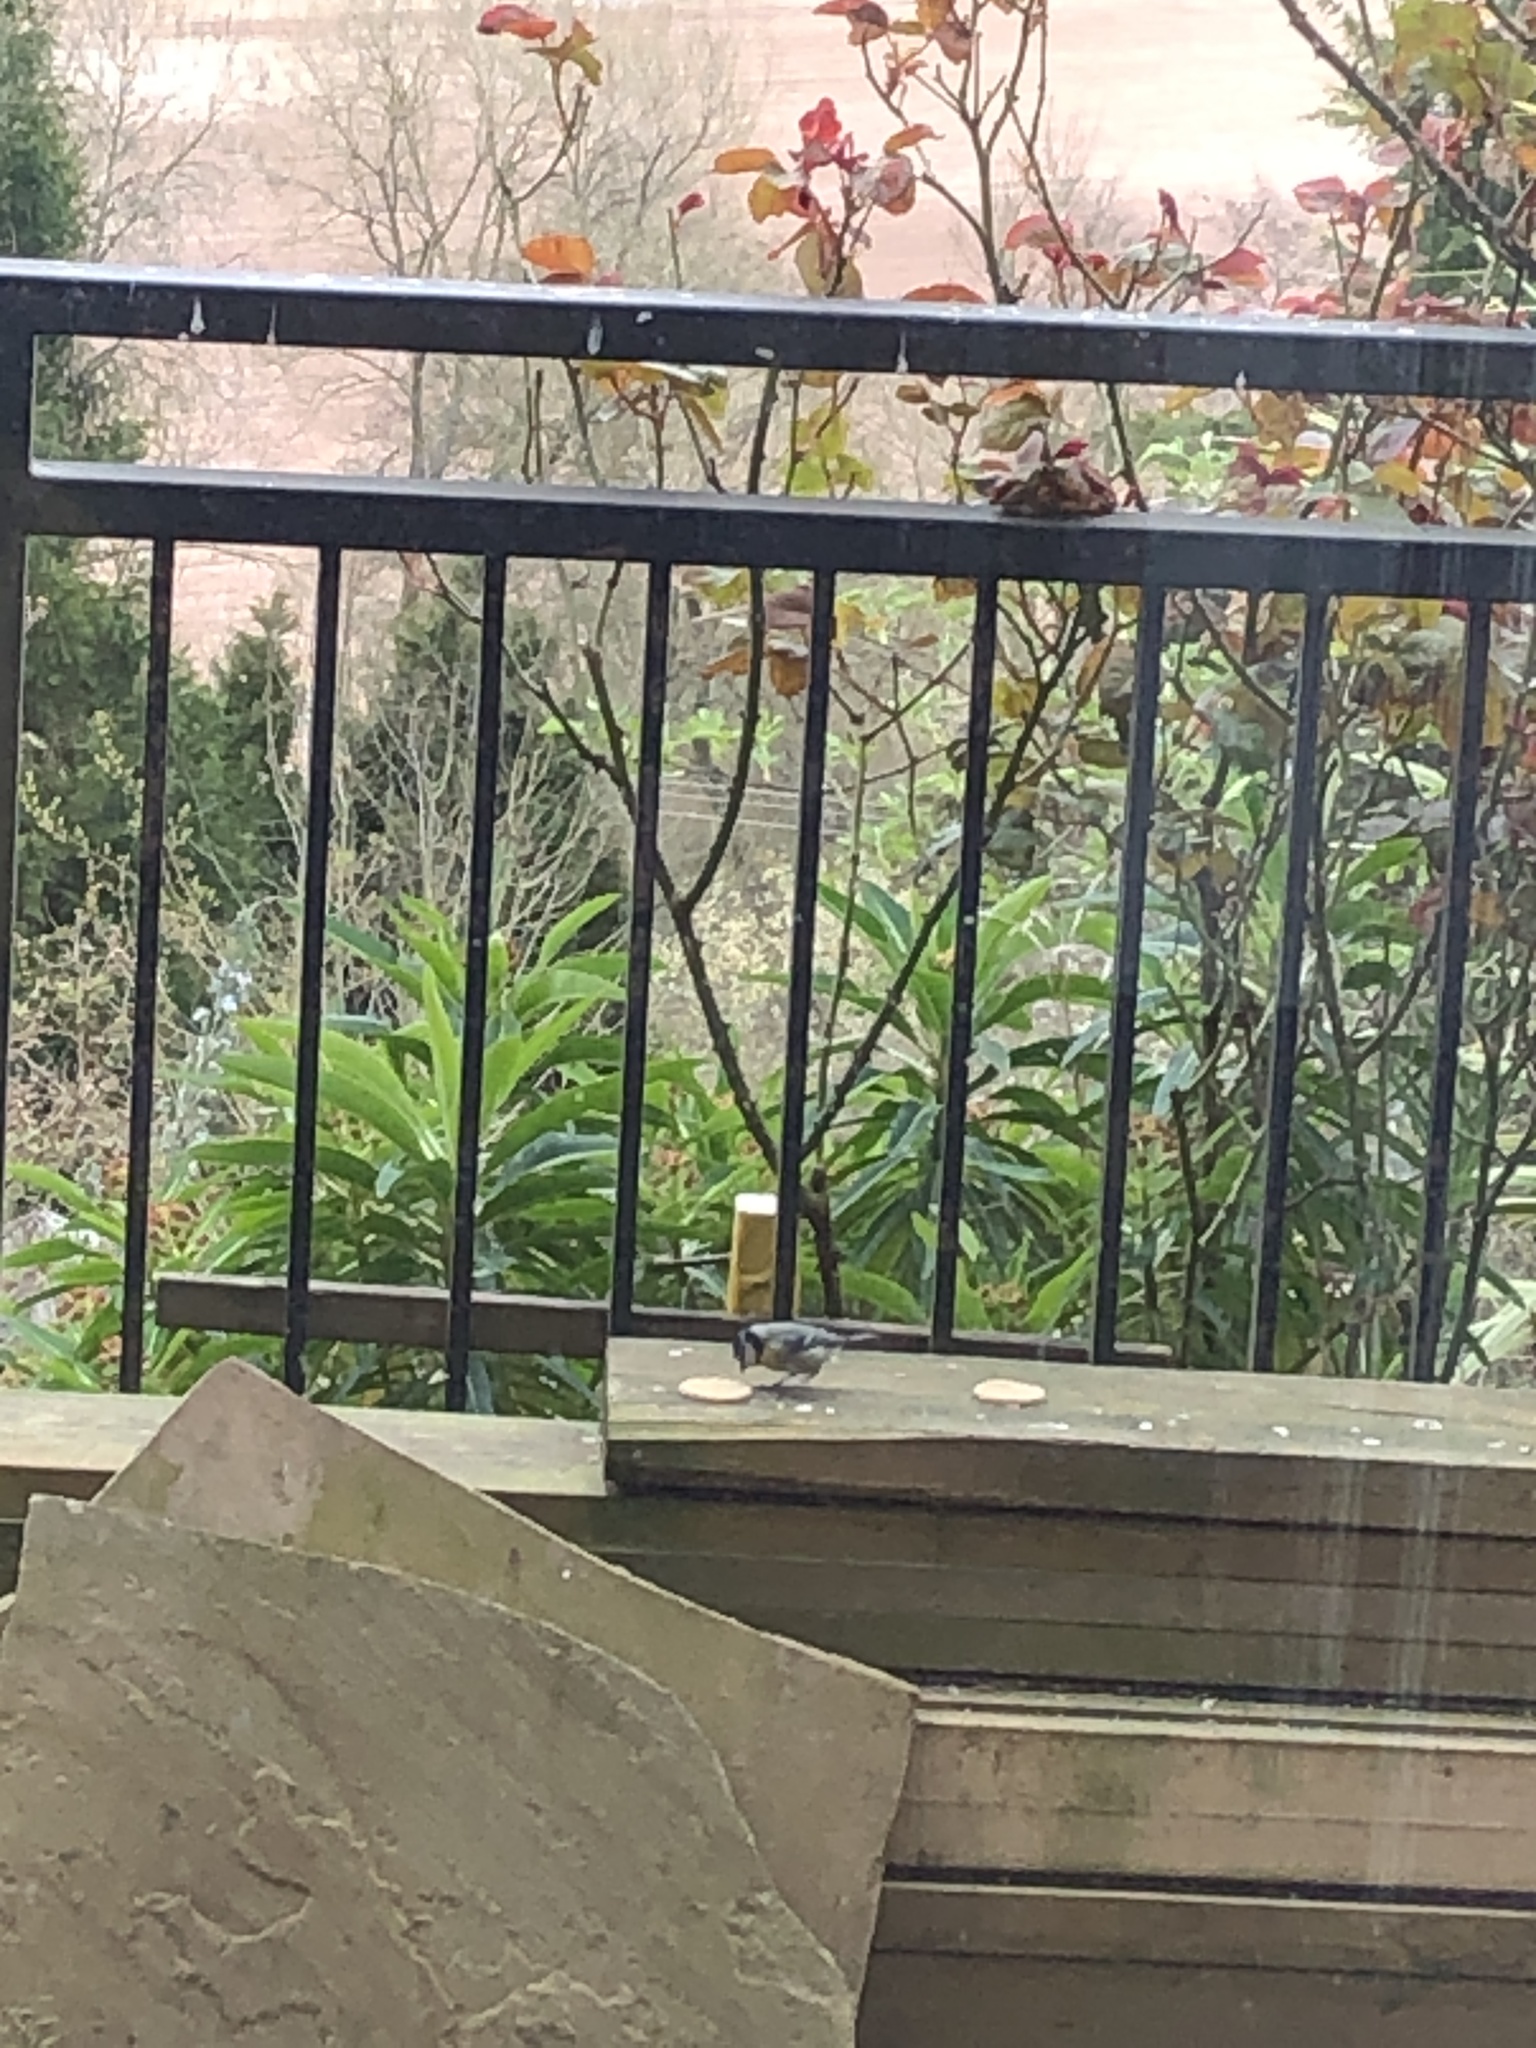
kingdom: Animalia
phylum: Chordata
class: Aves
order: Passeriformes
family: Paridae
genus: Cyanistes
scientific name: Cyanistes caeruleus
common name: Eurasian blue tit
